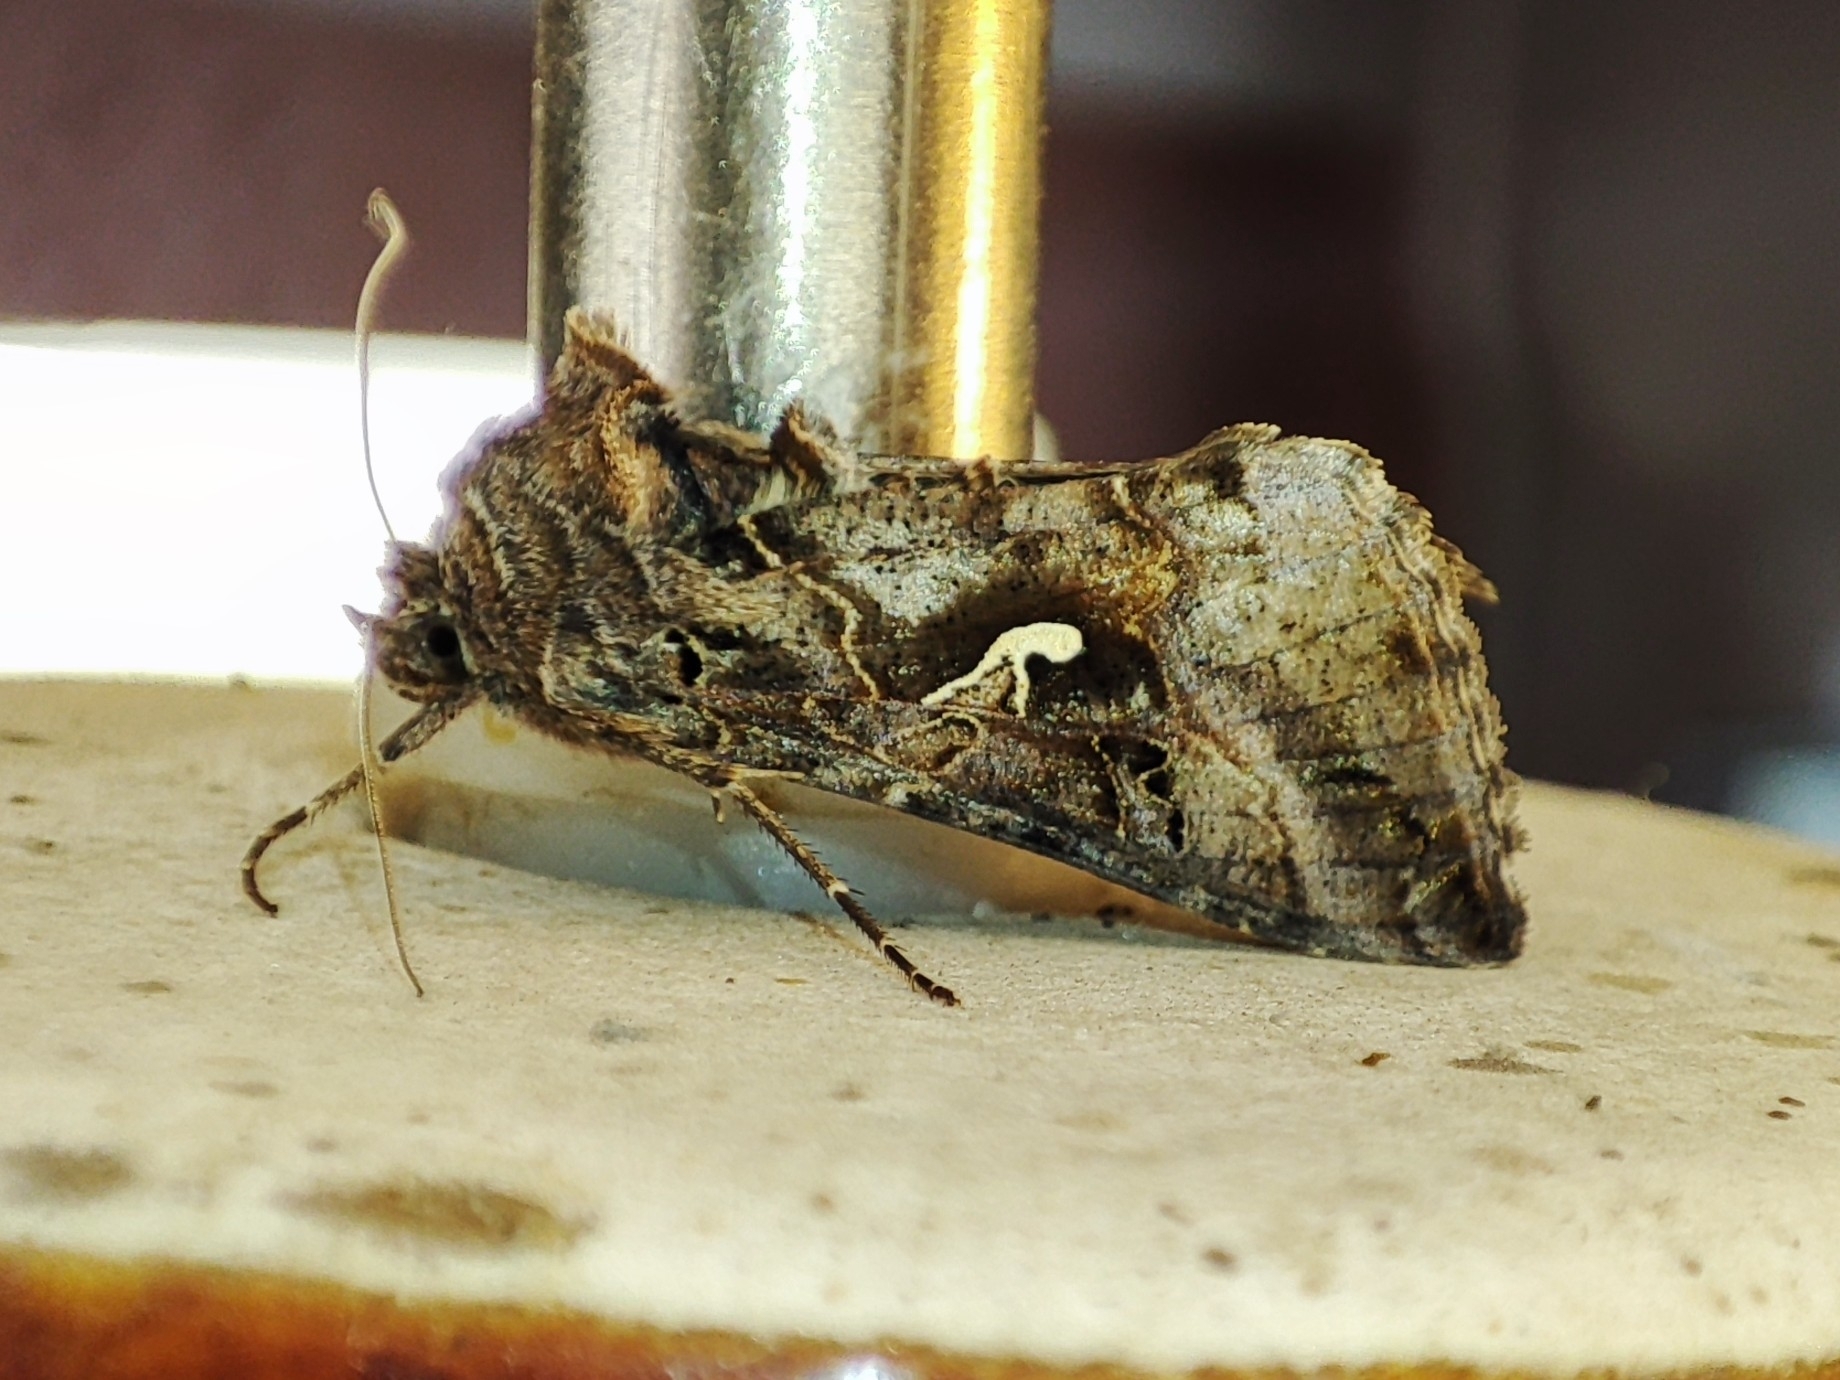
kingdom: Animalia
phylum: Arthropoda
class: Insecta
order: Lepidoptera
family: Noctuidae
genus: Autographa
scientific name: Autographa gamma
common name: Silver y
